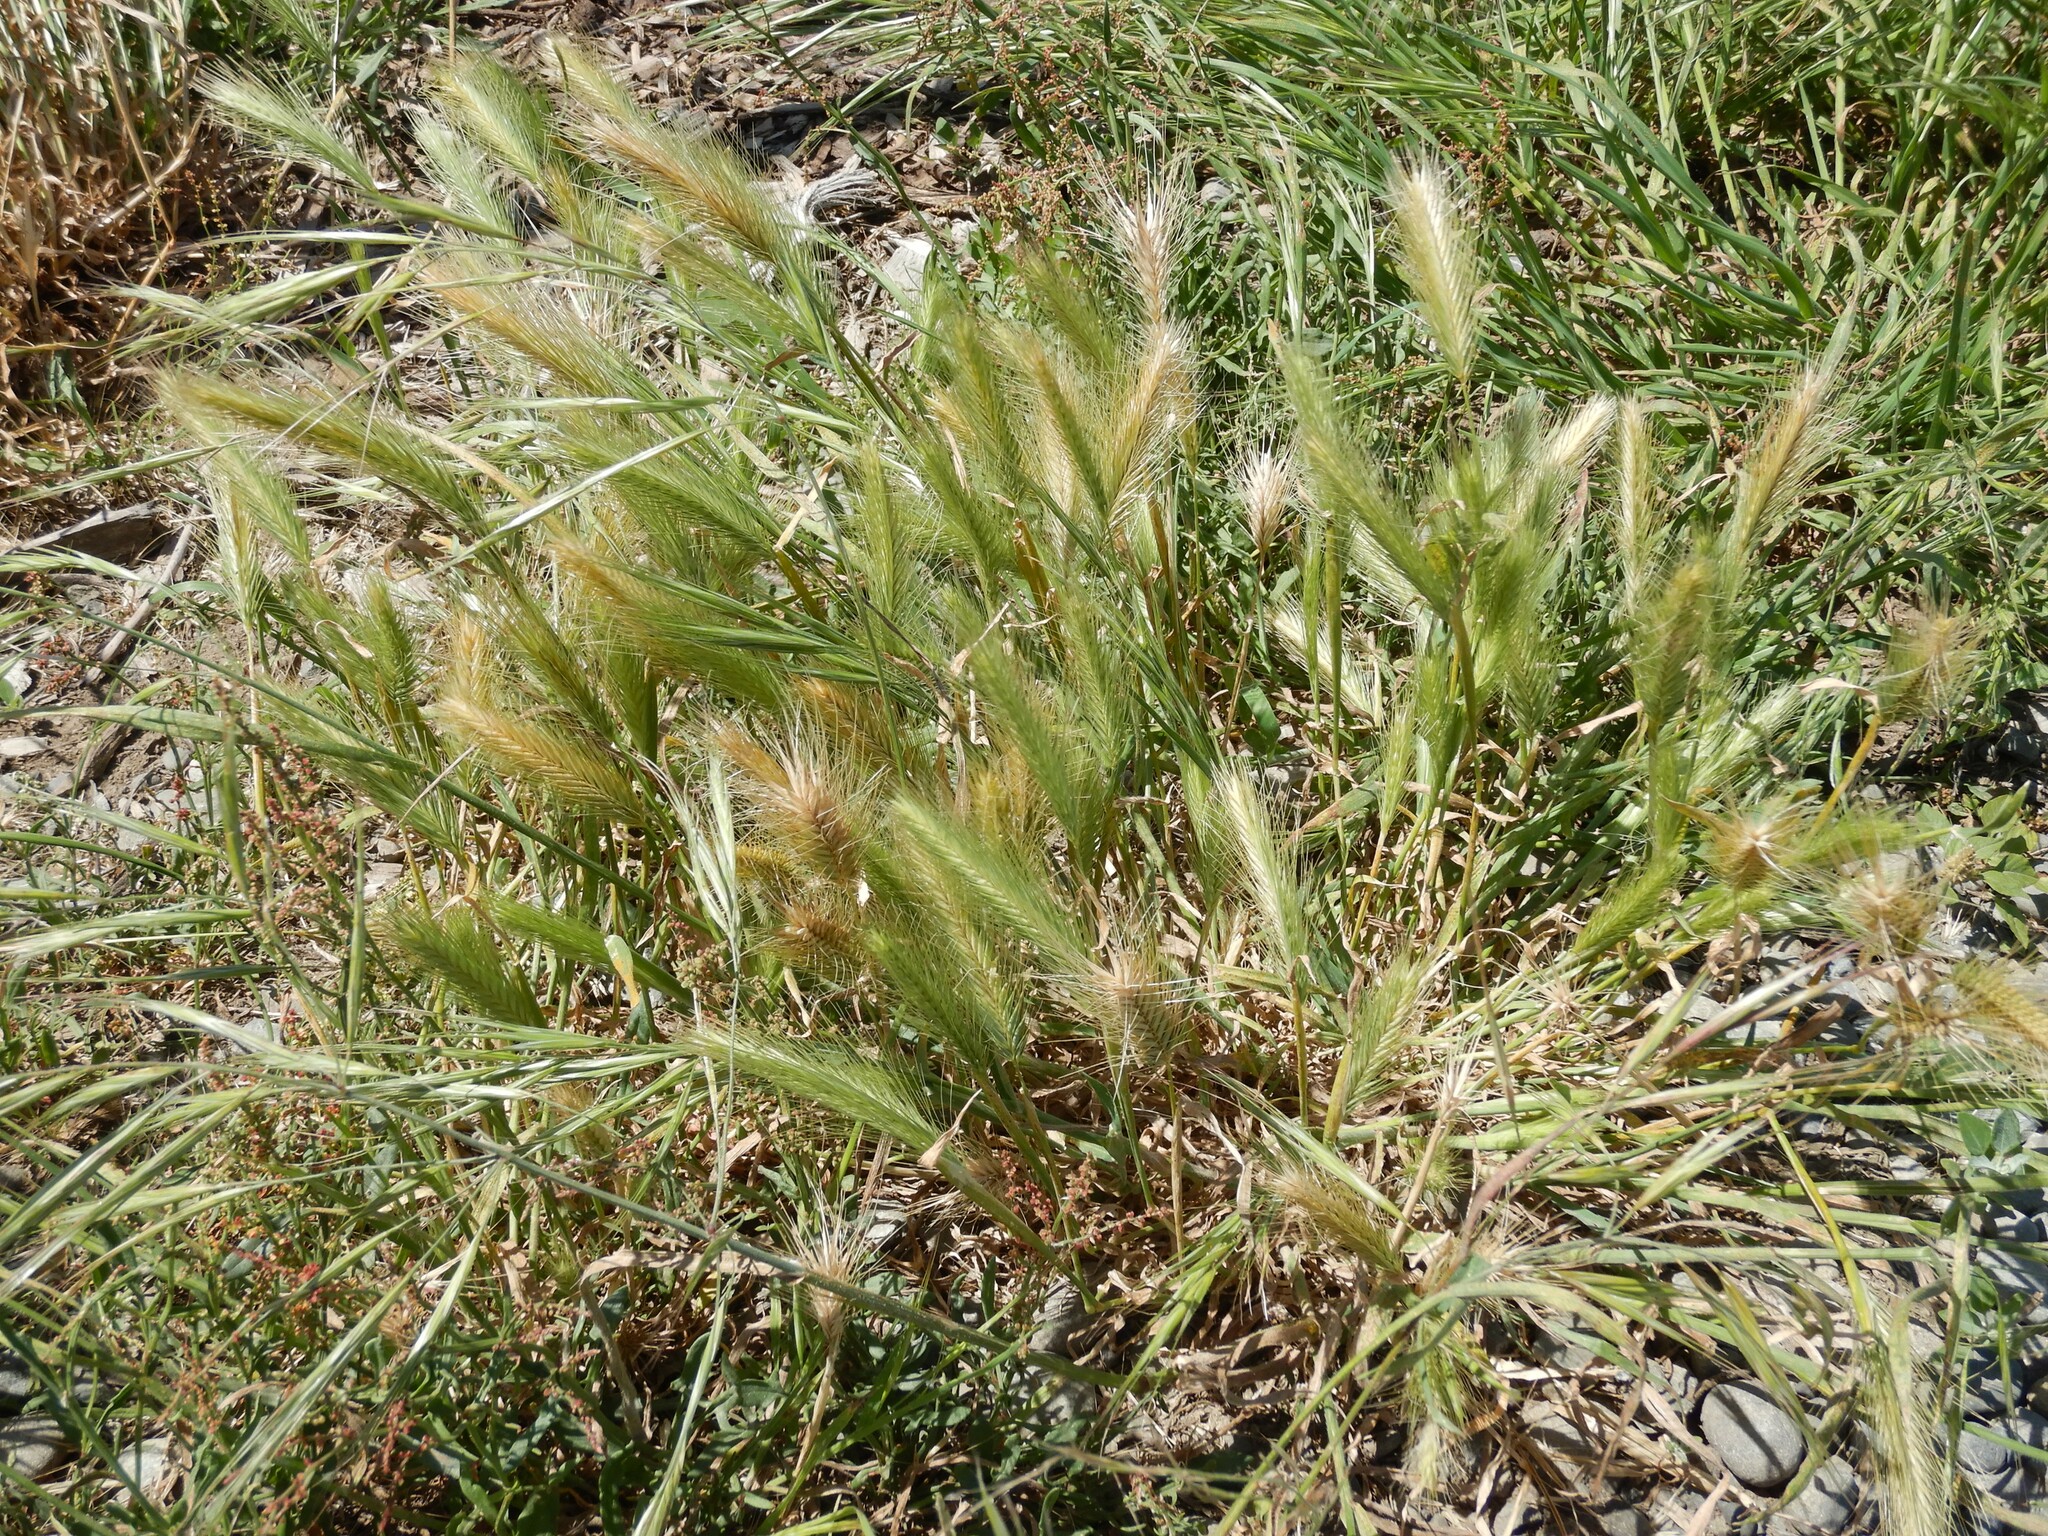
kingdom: Plantae
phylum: Tracheophyta
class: Liliopsida
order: Poales
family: Poaceae
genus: Hordeum
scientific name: Hordeum murinum
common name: Wall barley
